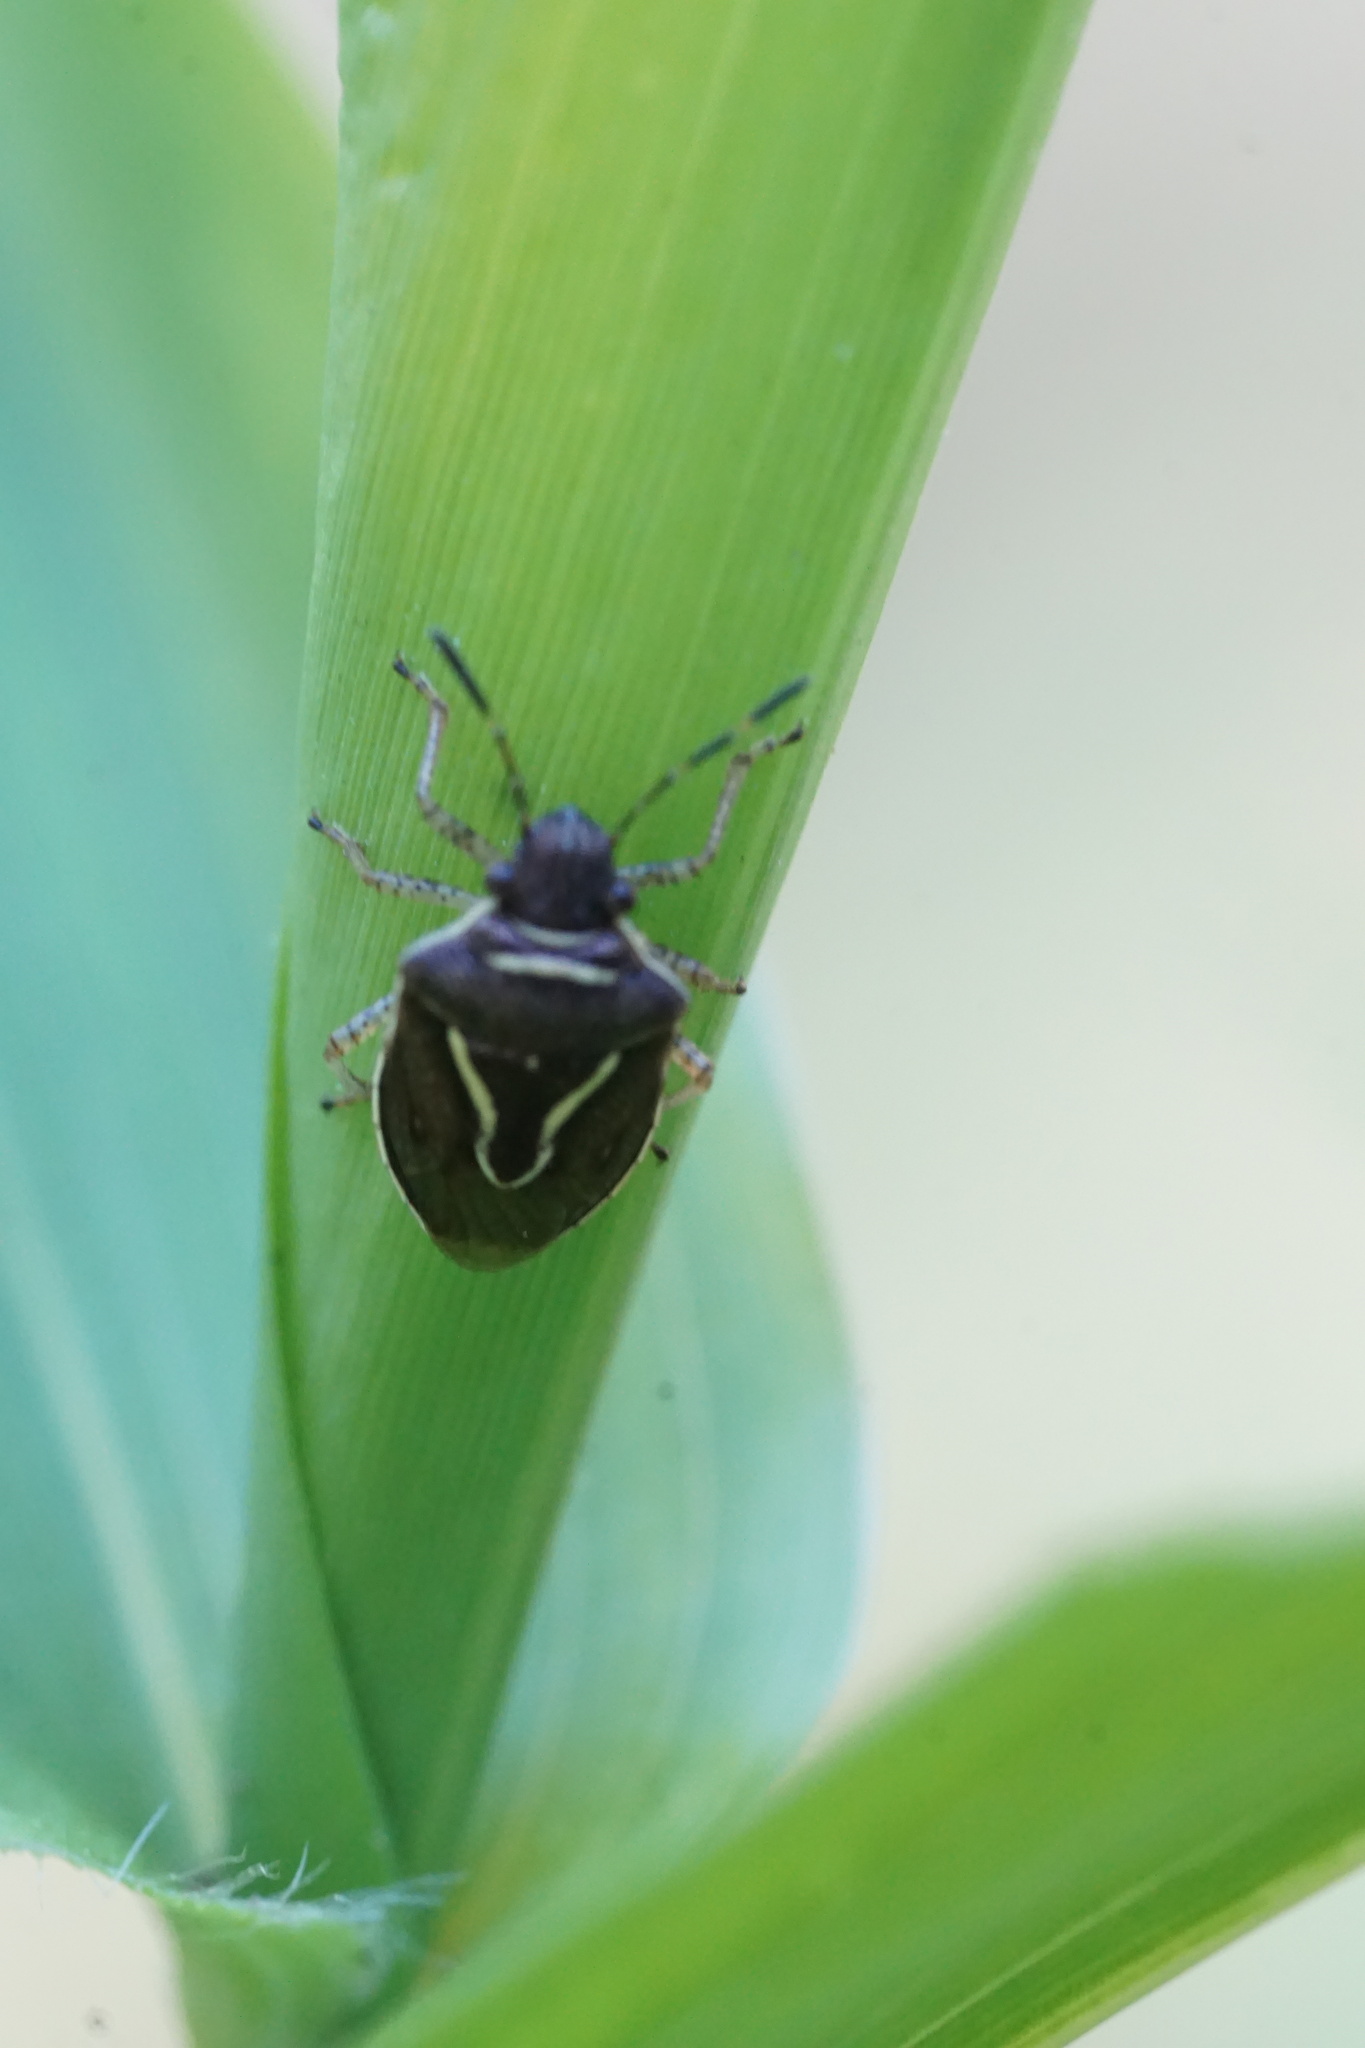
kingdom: Animalia
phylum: Arthropoda
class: Insecta
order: Hemiptera
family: Pentatomidae
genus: Mormidea
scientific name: Mormidea lugens
